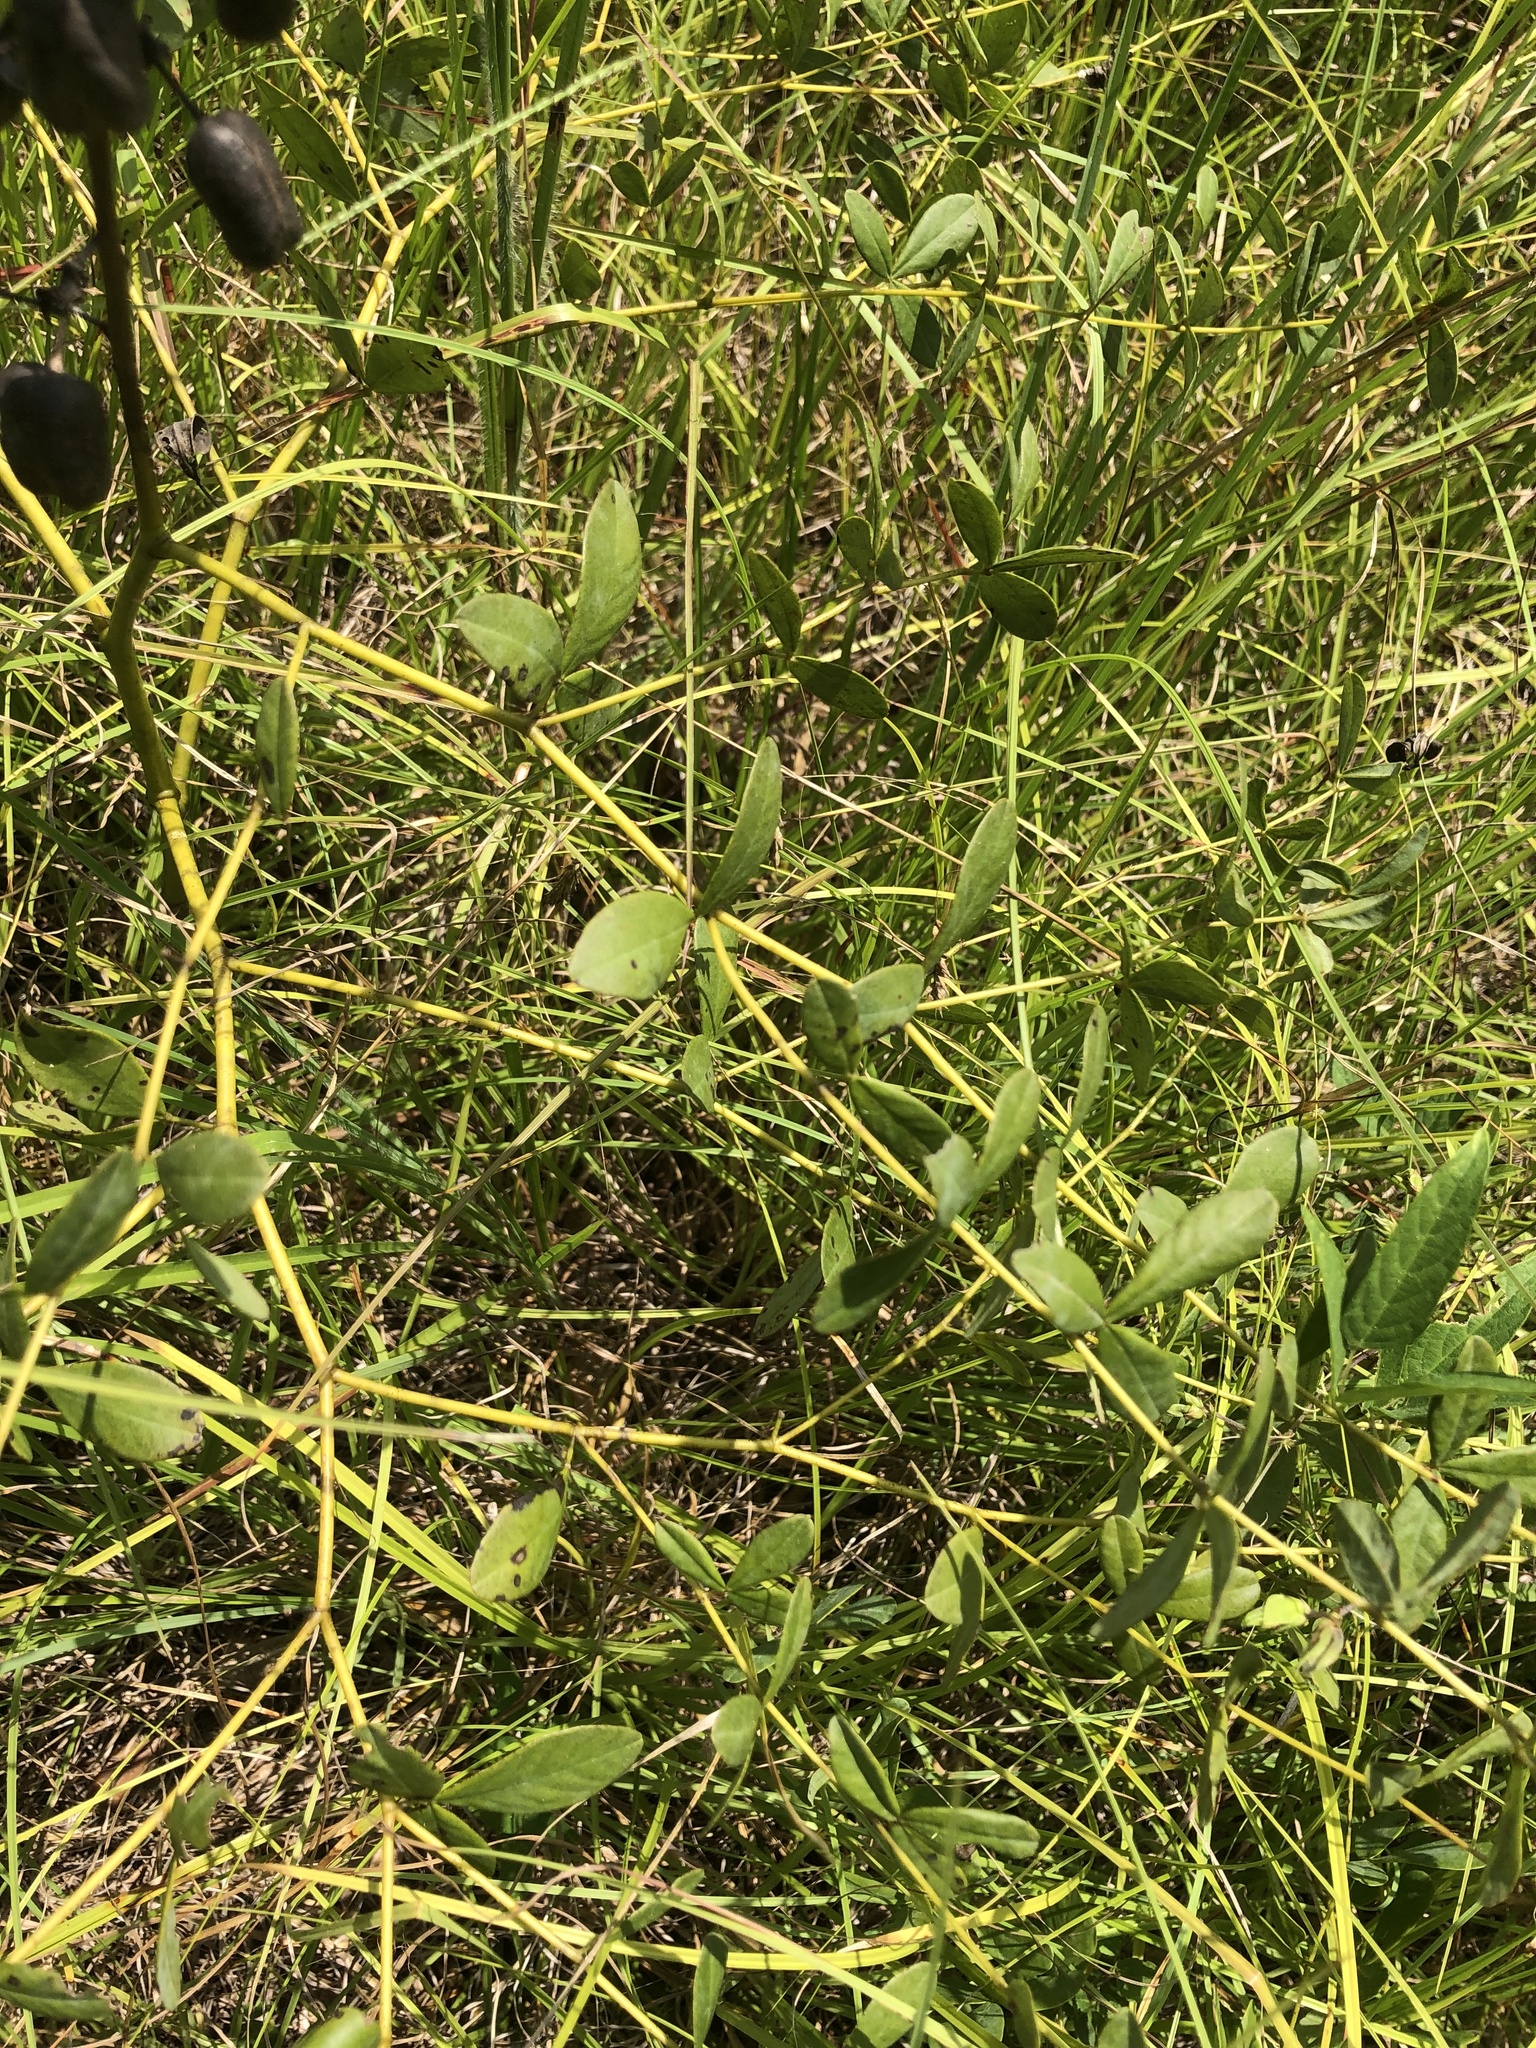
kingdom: Plantae
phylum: Tracheophyta
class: Magnoliopsida
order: Fabales
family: Fabaceae
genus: Baptisia
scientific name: Baptisia alba
